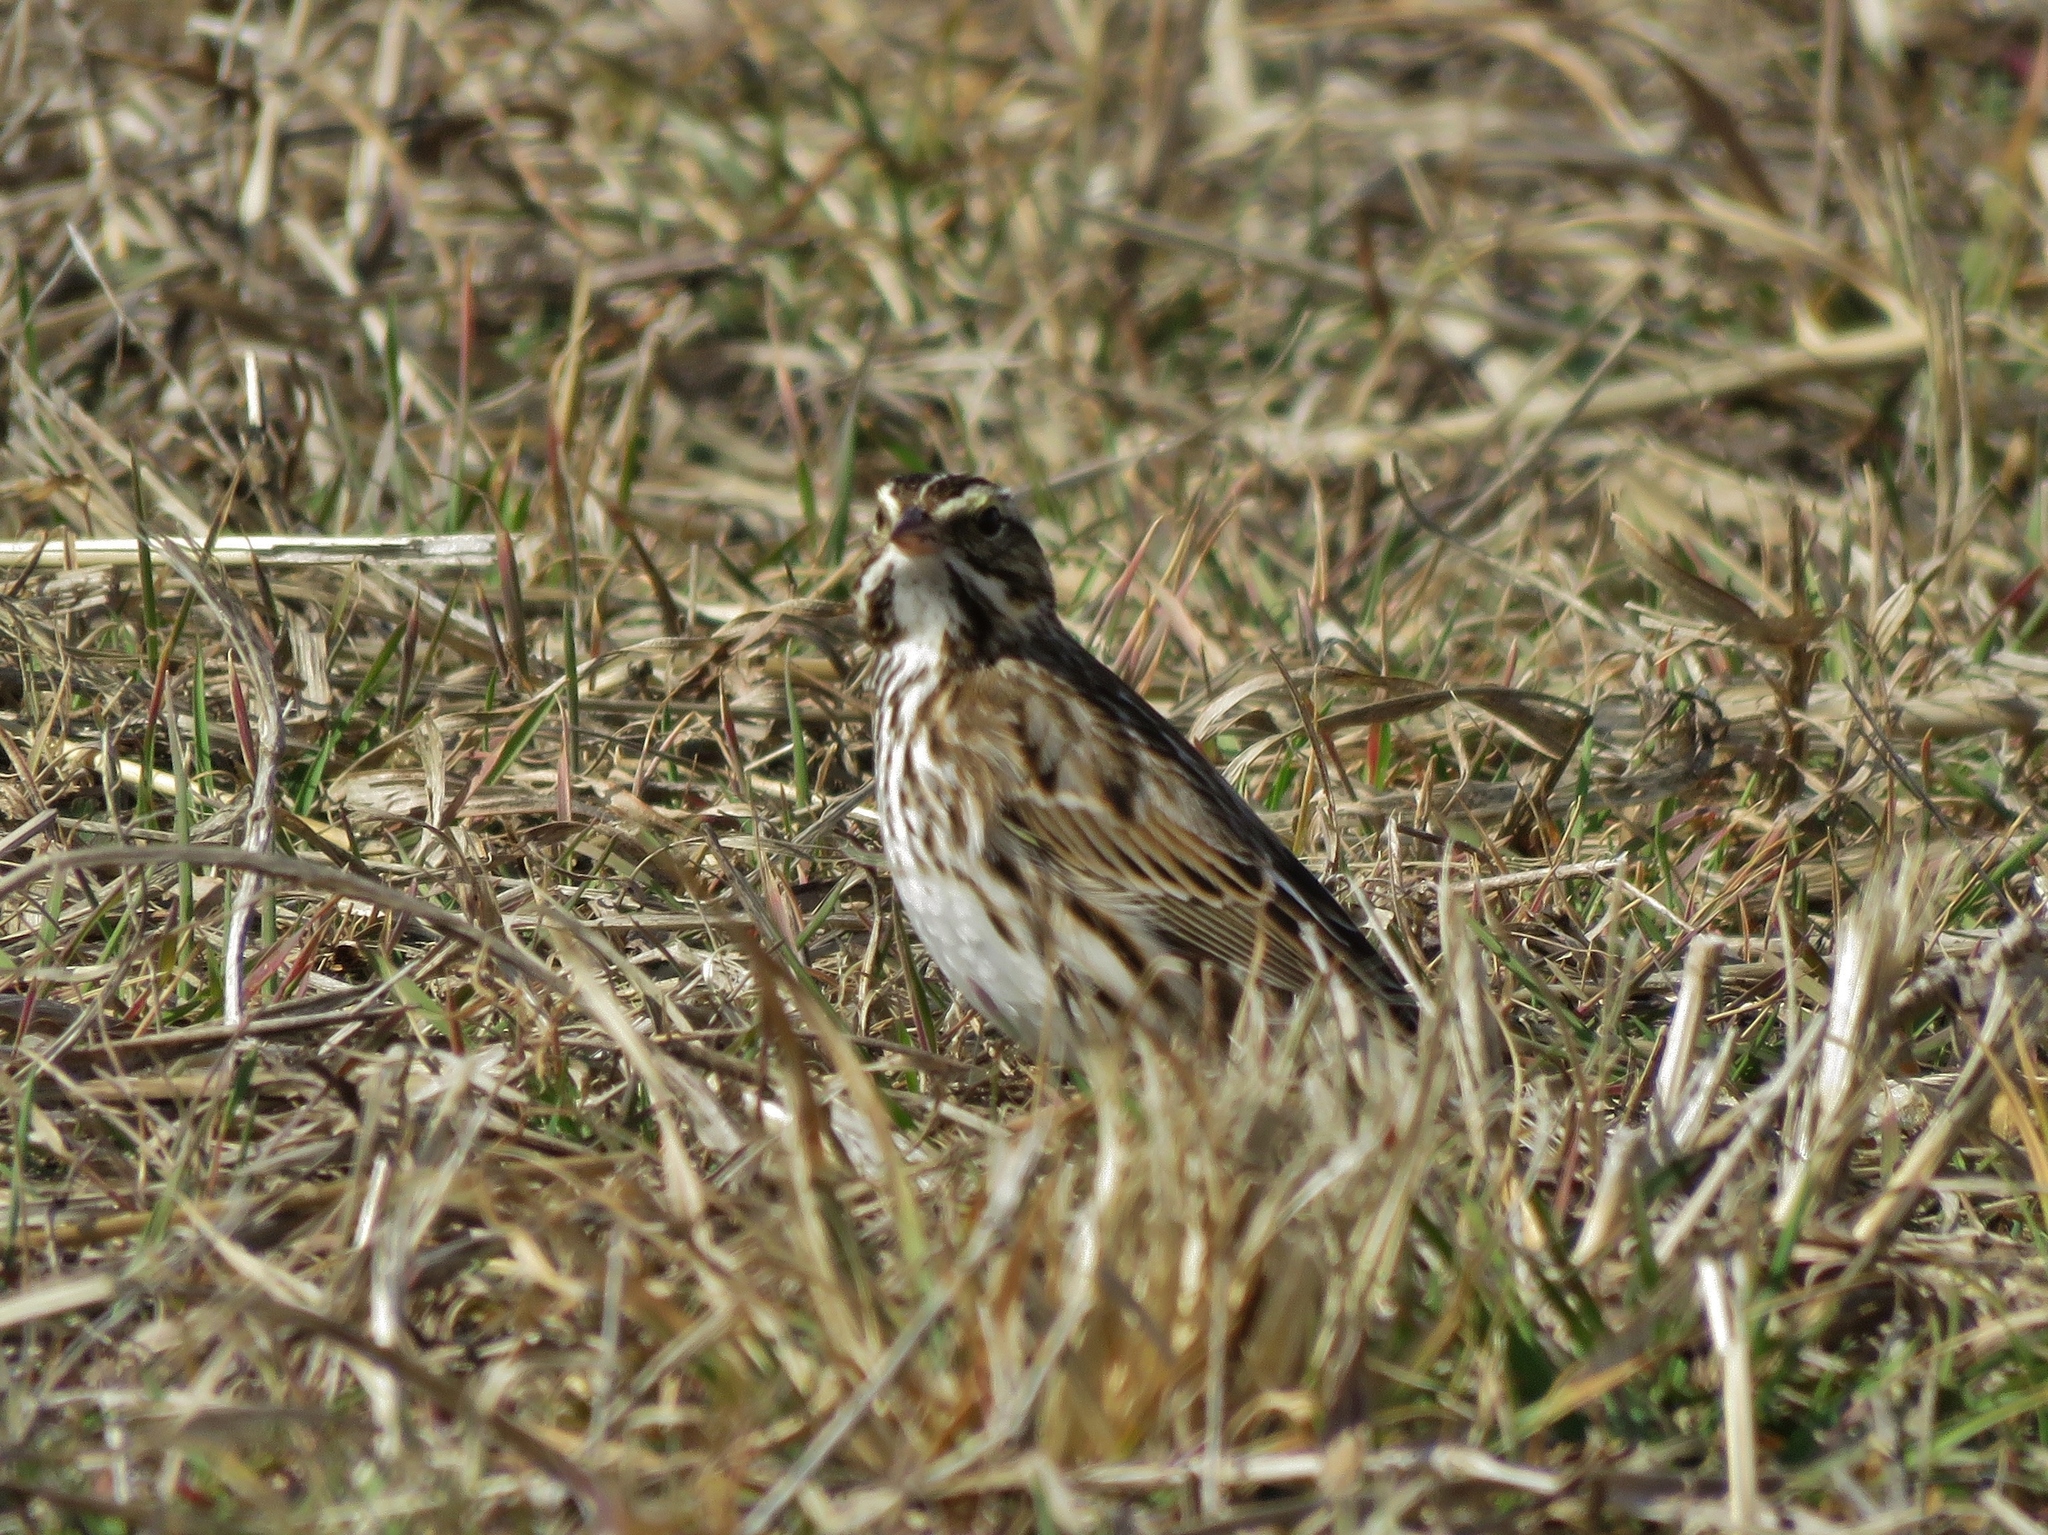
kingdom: Animalia
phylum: Chordata
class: Aves
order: Passeriformes
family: Passerellidae
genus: Passerculus
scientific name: Passerculus sandwichensis
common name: Savannah sparrow
